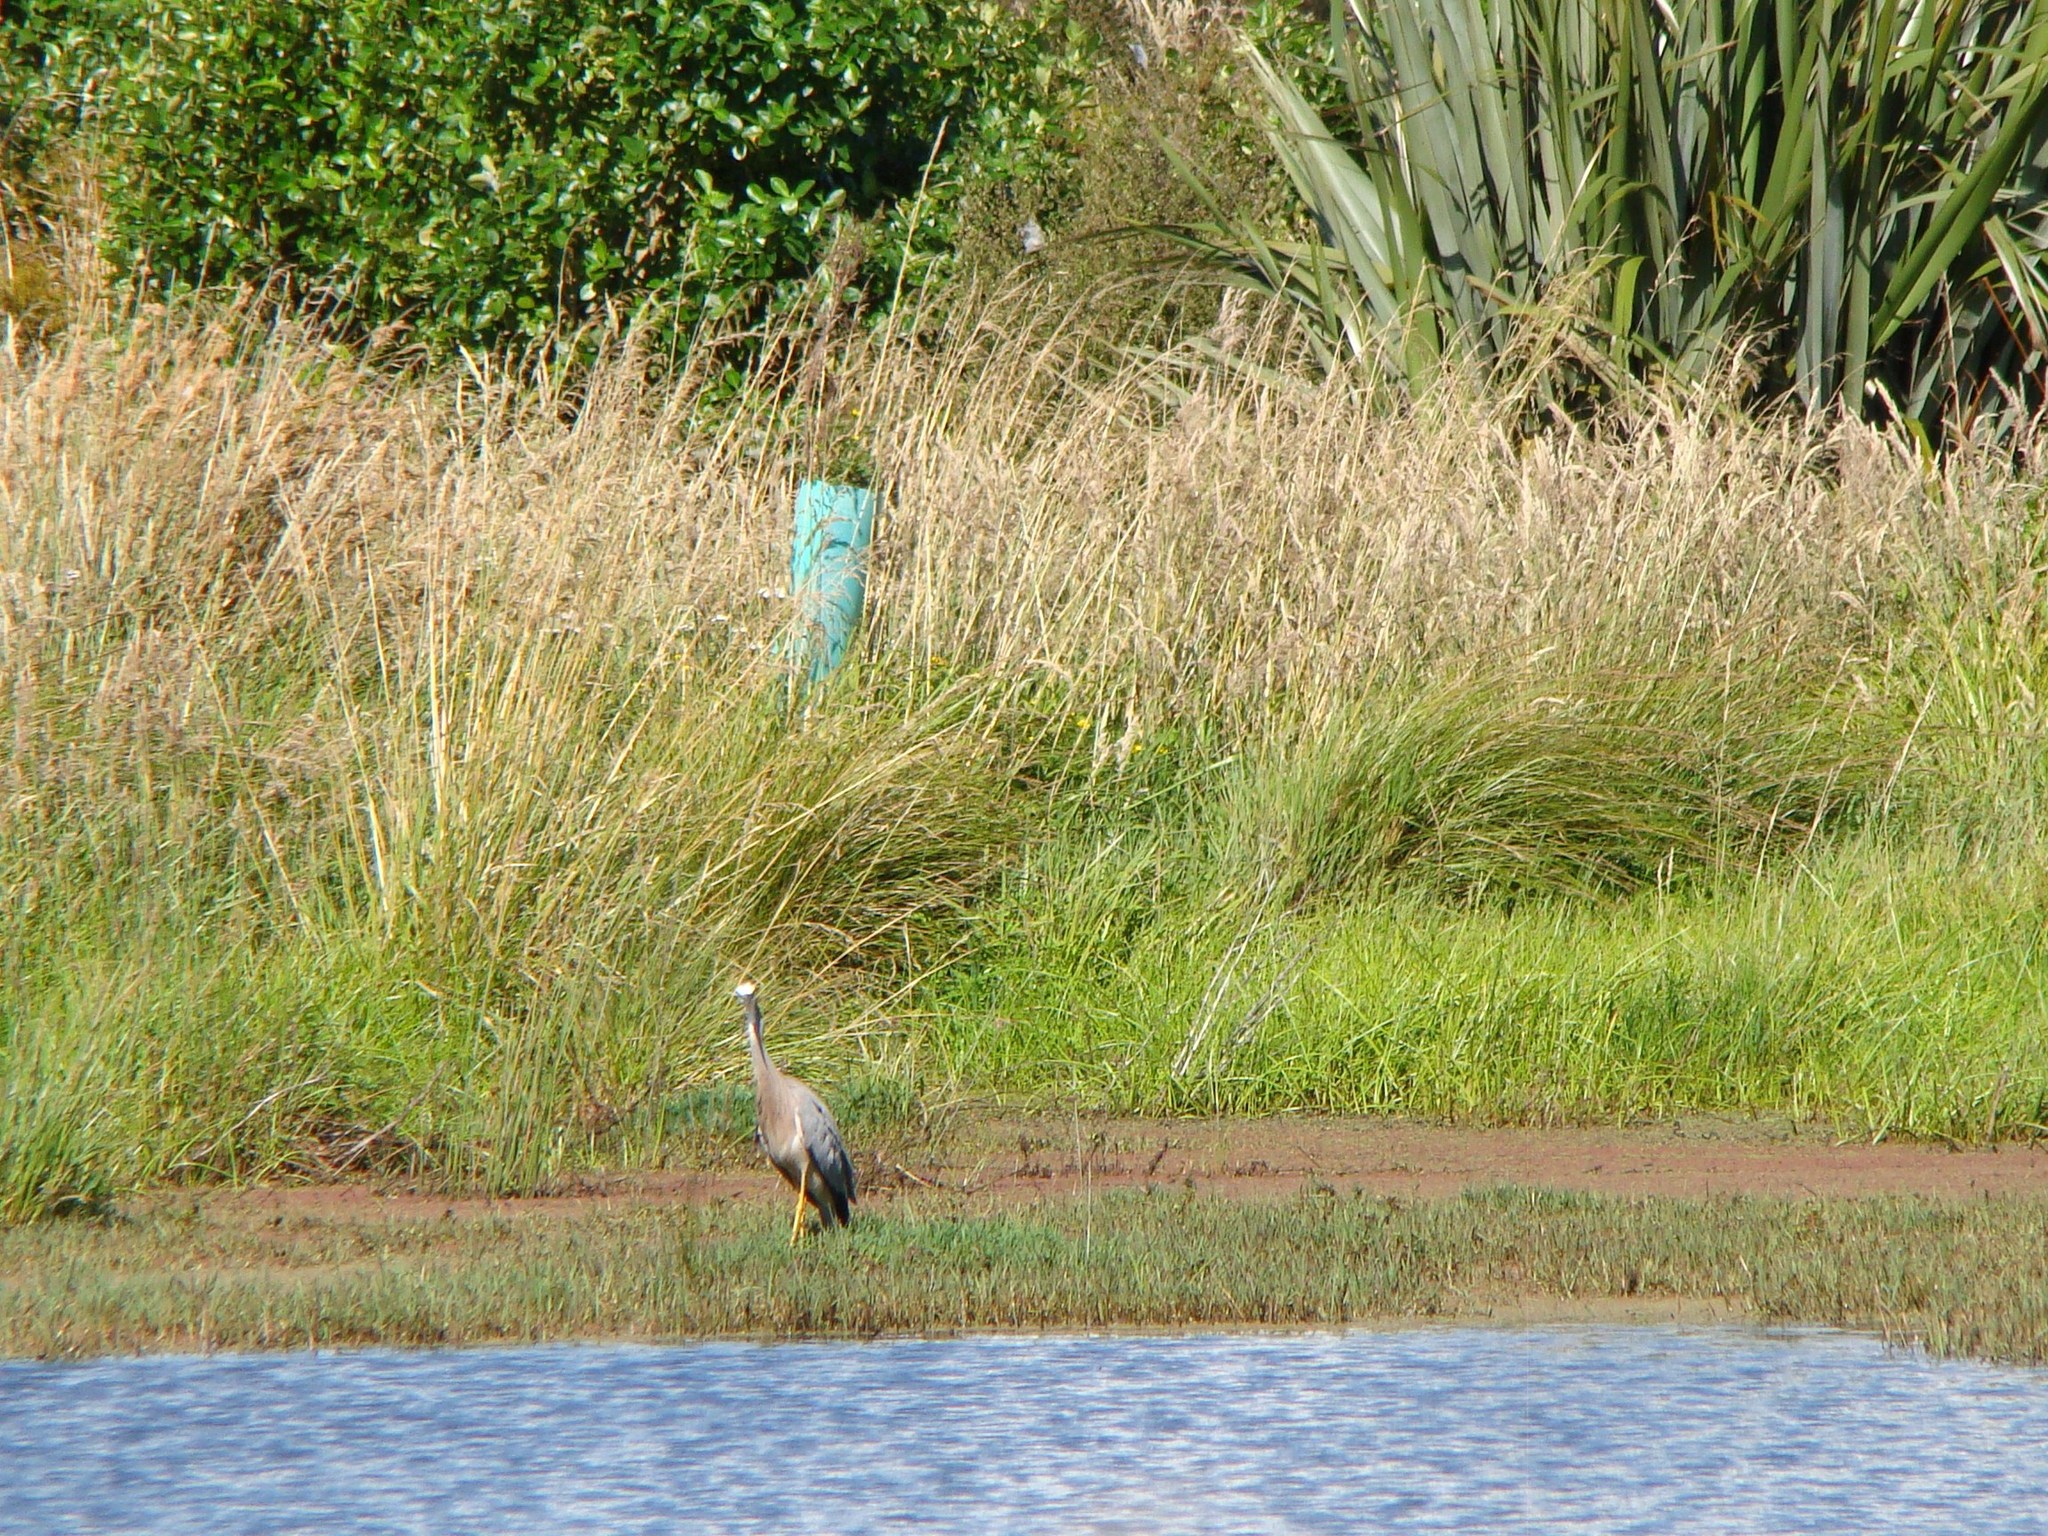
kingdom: Animalia
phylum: Chordata
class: Aves
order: Pelecaniformes
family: Ardeidae
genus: Egretta
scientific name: Egretta novaehollandiae
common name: White-faced heron
